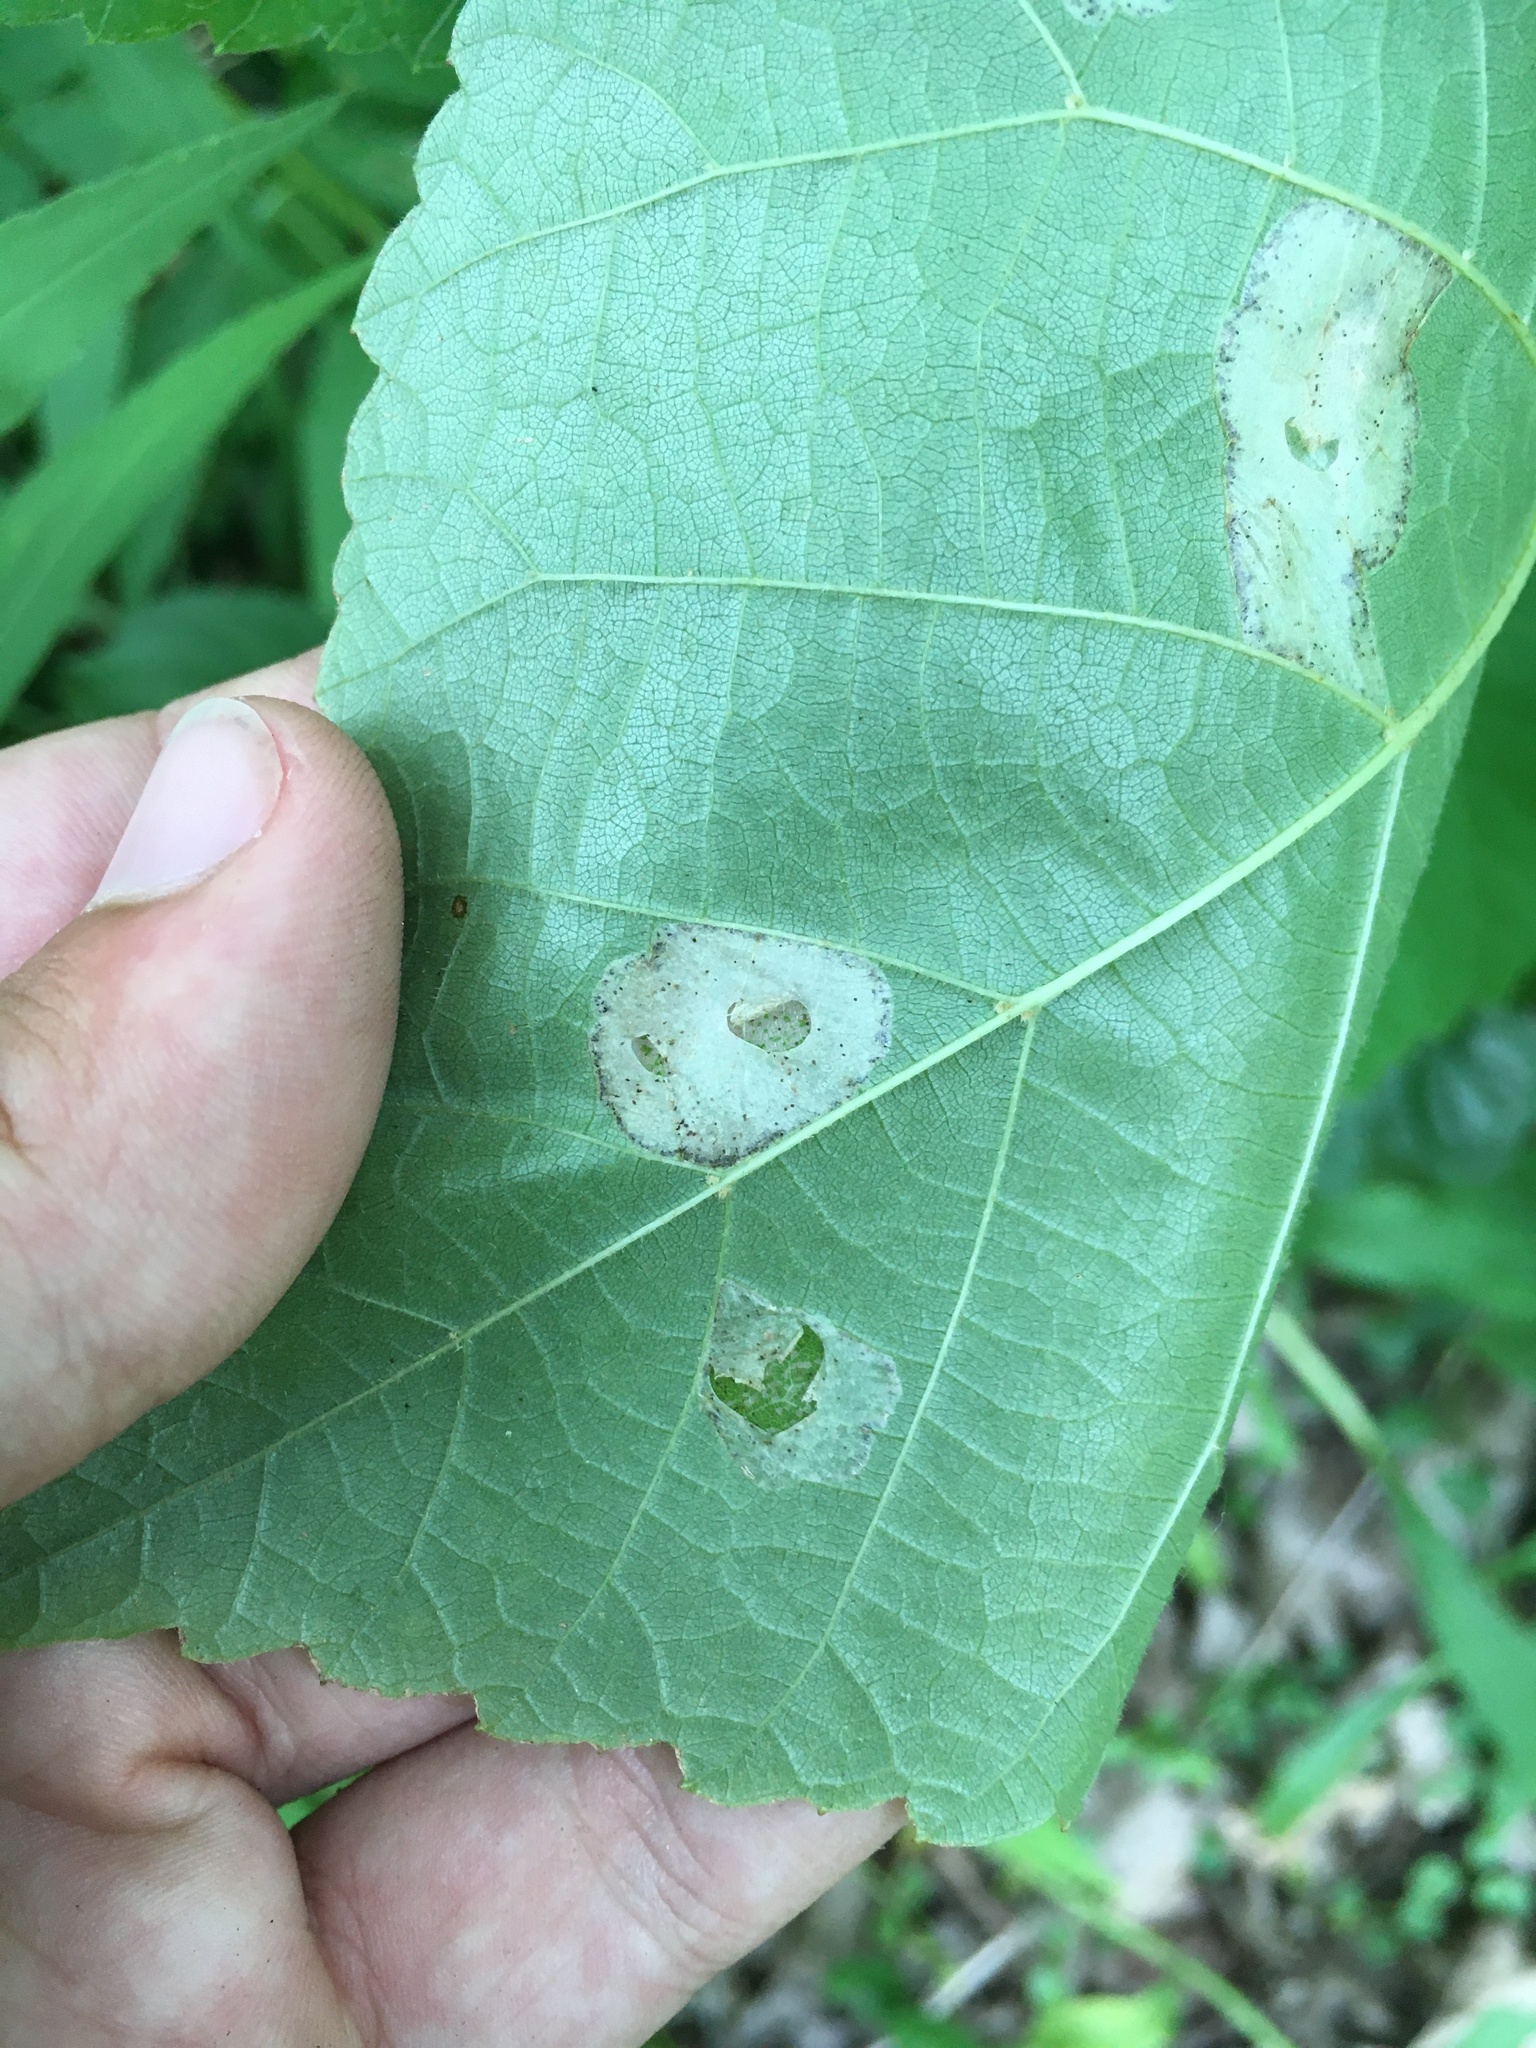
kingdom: Animalia
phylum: Arthropoda
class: Insecta
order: Lepidoptera
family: Gracillariidae
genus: Phyllonorycter
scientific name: Phyllonorycter lucetiella
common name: Basswood miner moth
